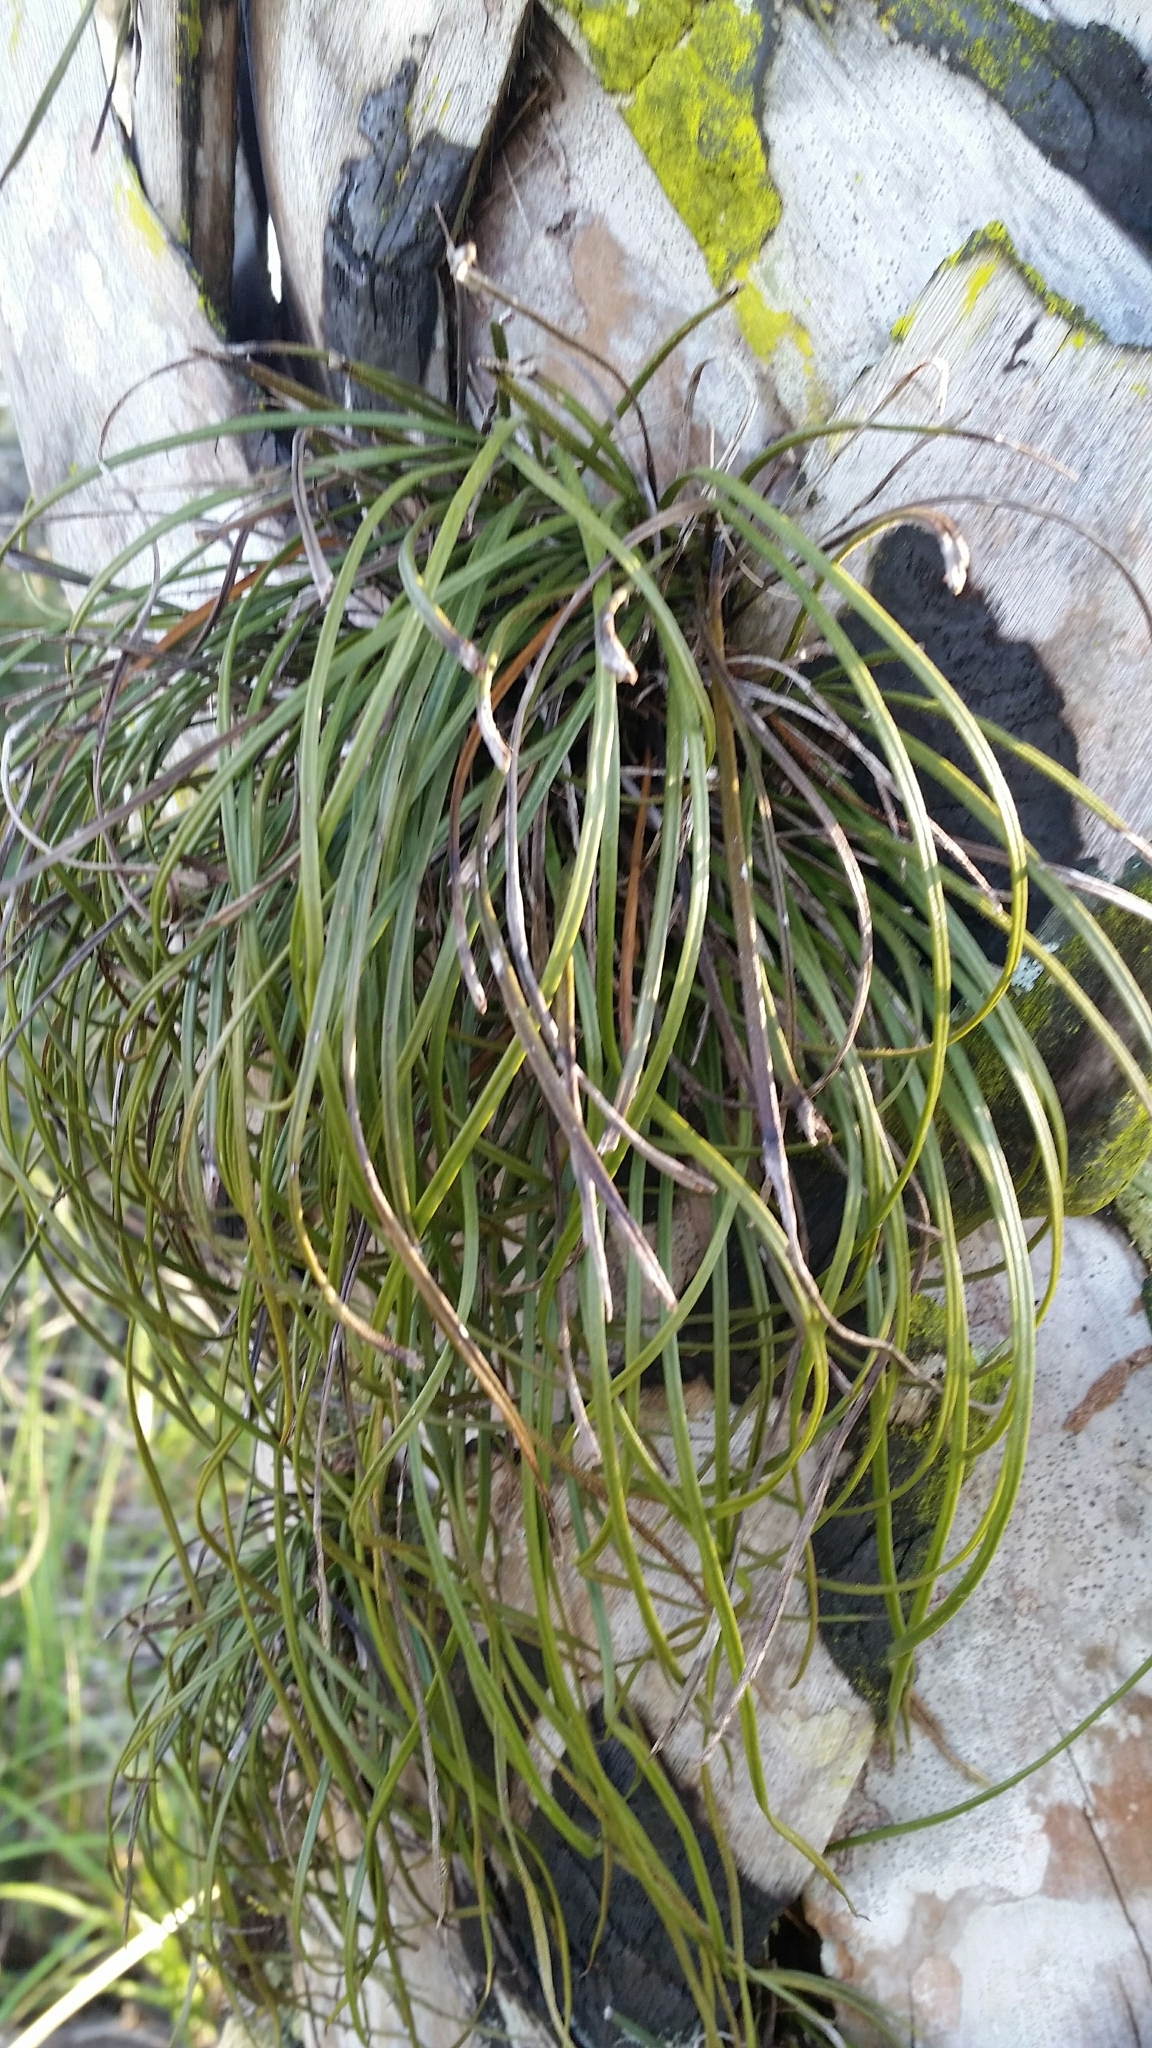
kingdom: Plantae
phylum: Tracheophyta
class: Polypodiopsida
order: Polypodiales
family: Pteridaceae
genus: Vittaria
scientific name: Vittaria lineata
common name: Shoestring fern
